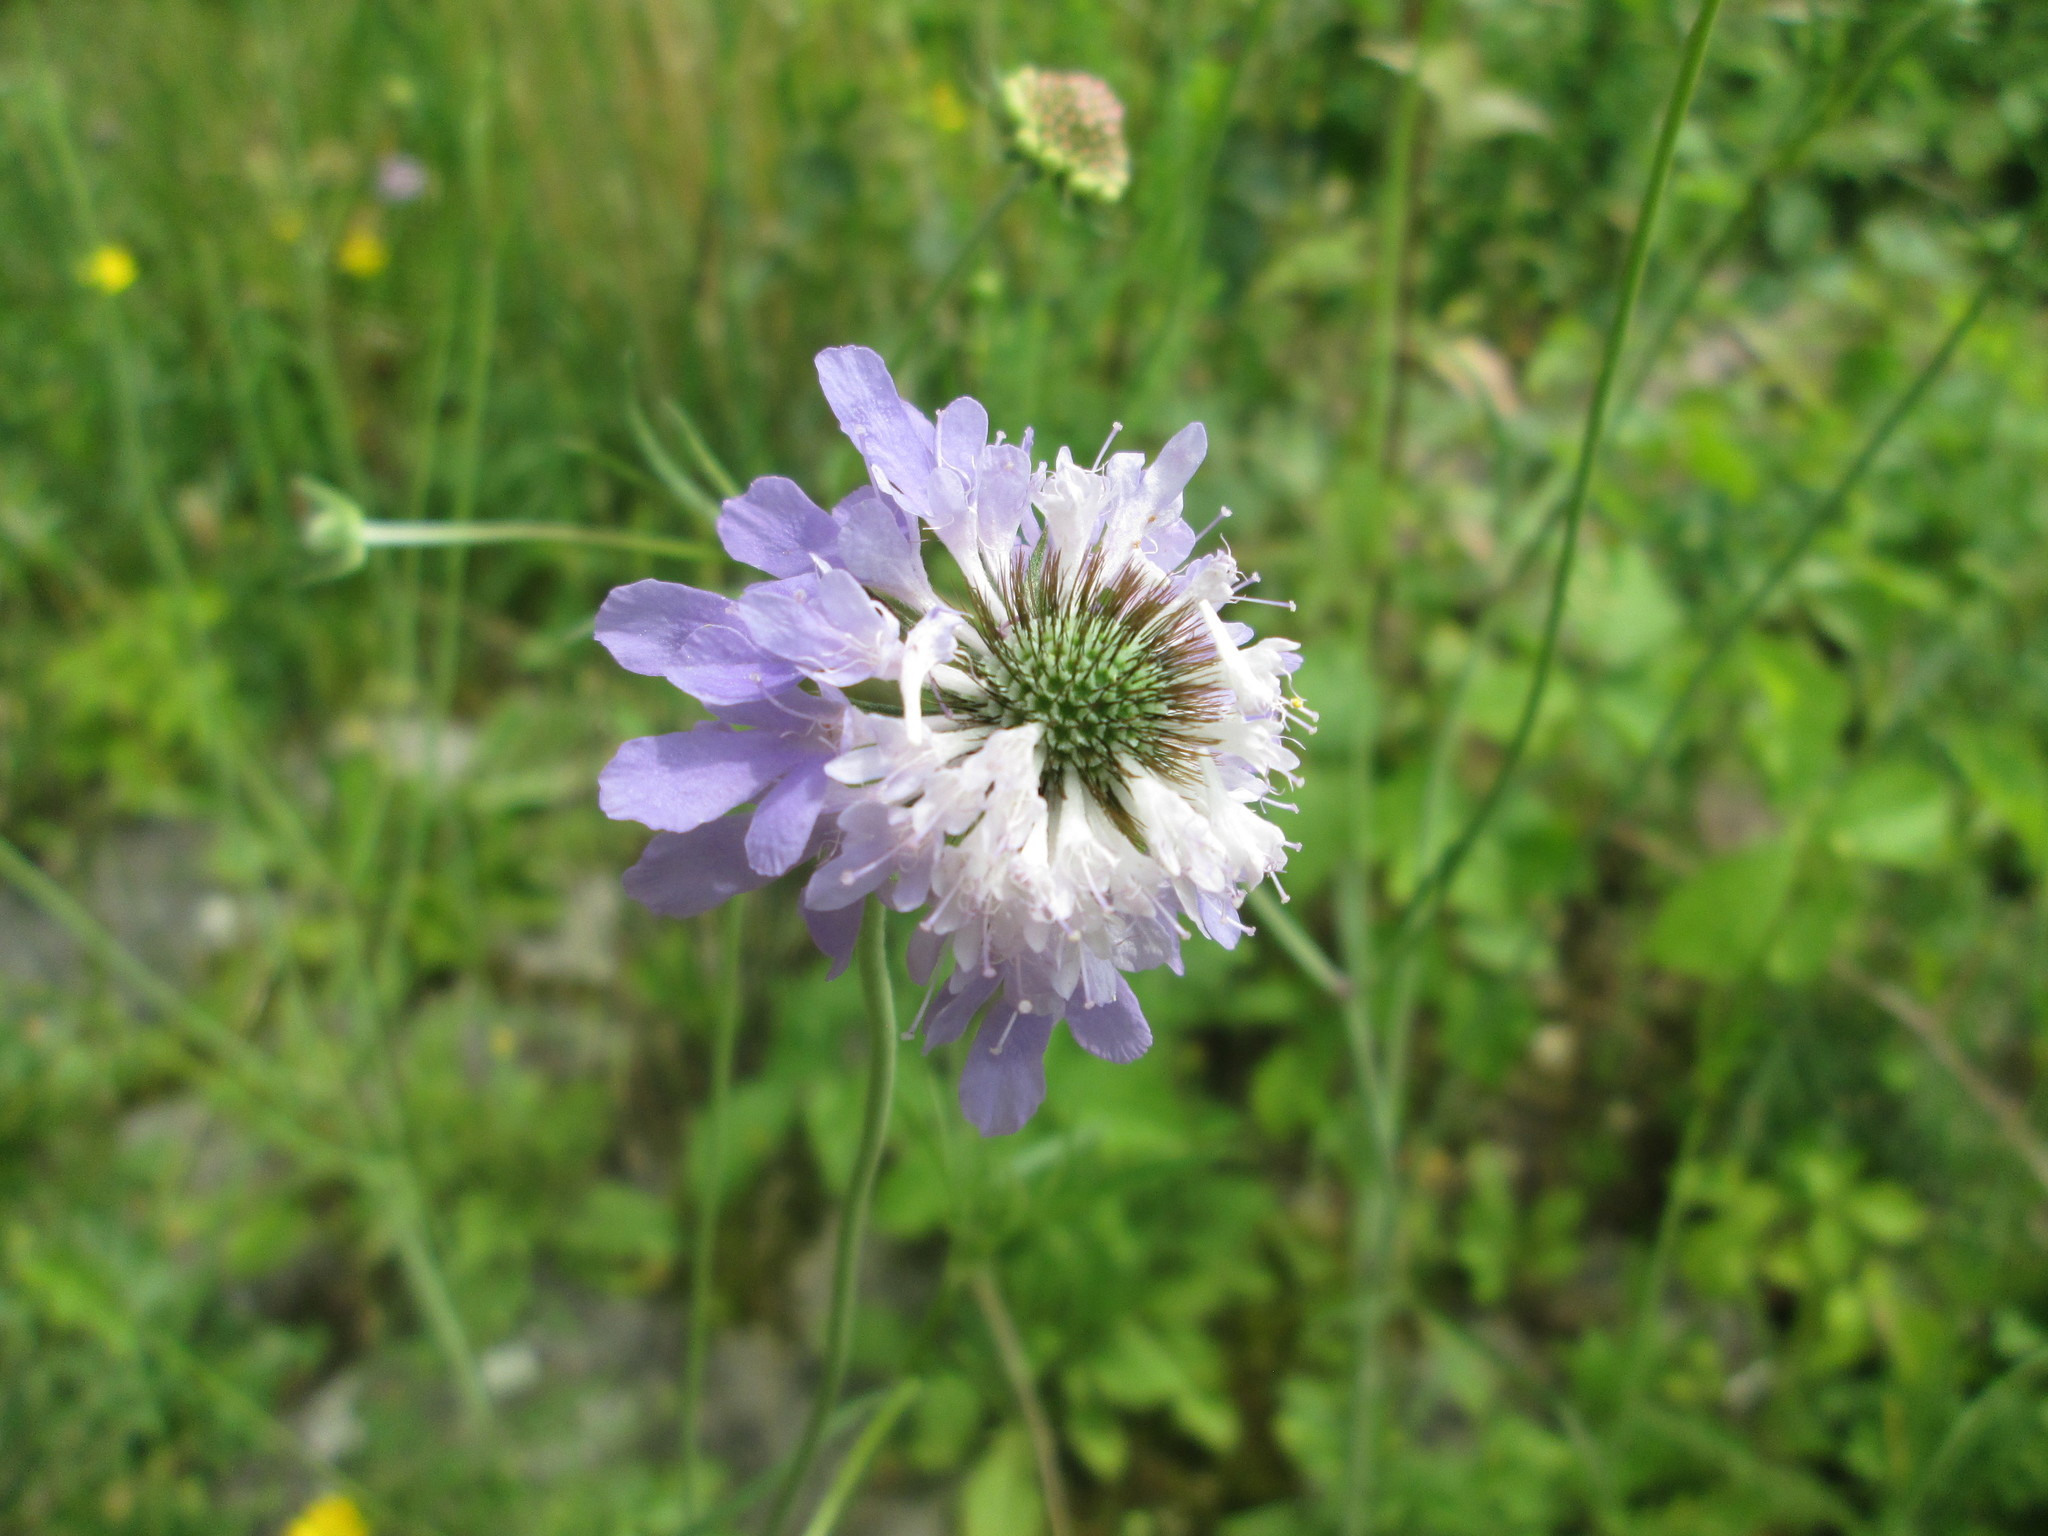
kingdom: Plantae
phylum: Tracheophyta
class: Magnoliopsida
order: Dipsacales
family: Caprifoliaceae
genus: Scabiosa
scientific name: Scabiosa columbaria
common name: Small scabious
